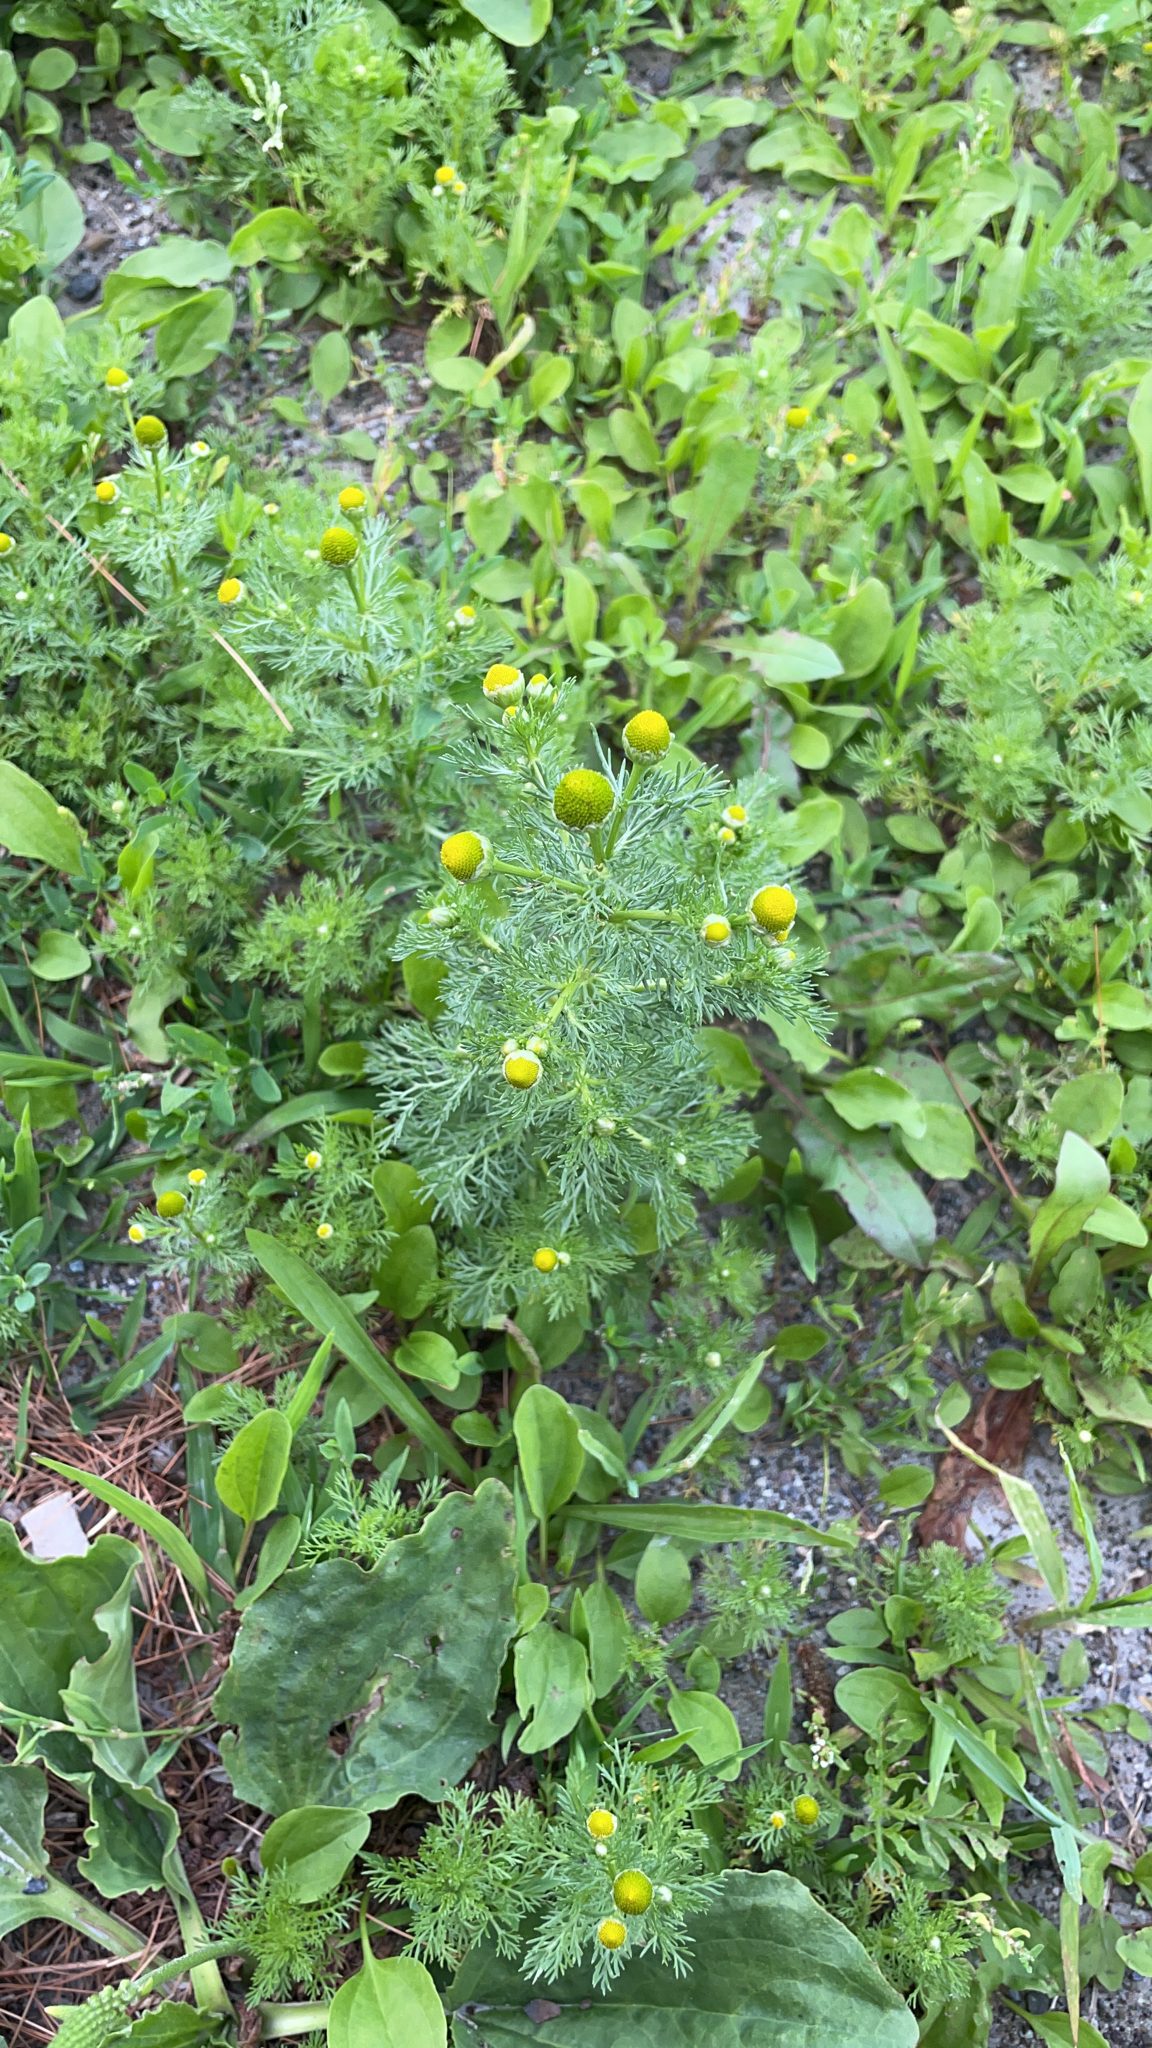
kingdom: Plantae
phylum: Tracheophyta
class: Magnoliopsida
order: Asterales
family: Asteraceae
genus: Matricaria
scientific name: Matricaria discoidea
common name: Disc mayweed
